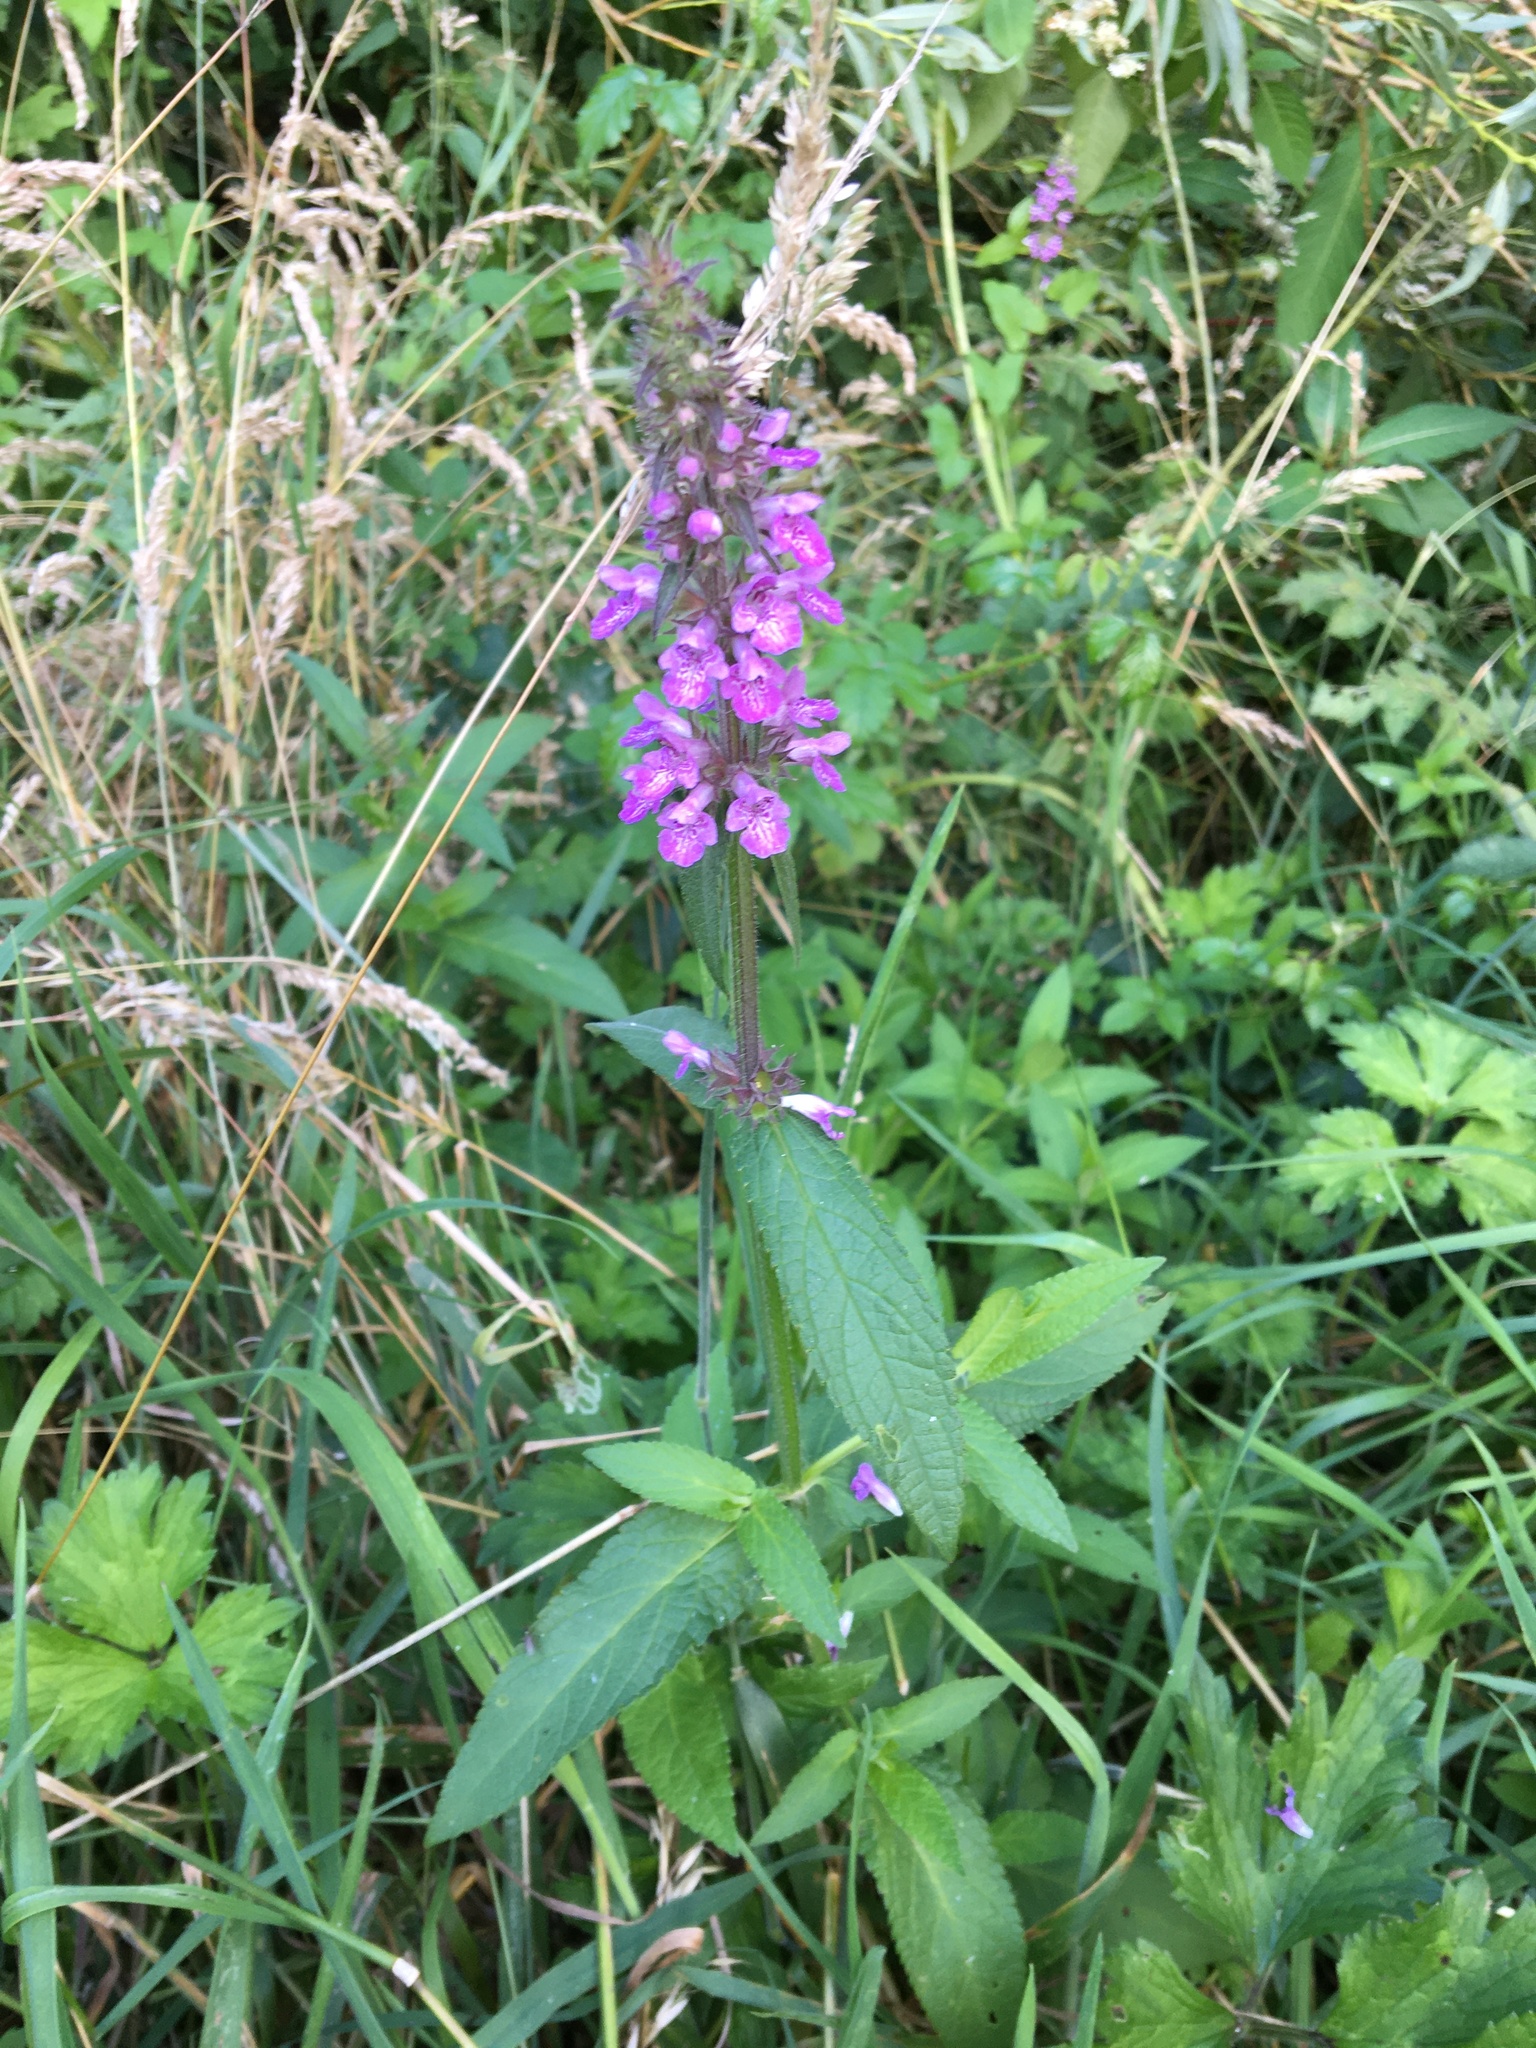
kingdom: Plantae
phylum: Tracheophyta
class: Magnoliopsida
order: Lamiales
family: Lamiaceae
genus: Stachys
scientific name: Stachys palustris
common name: Marsh woundwort
